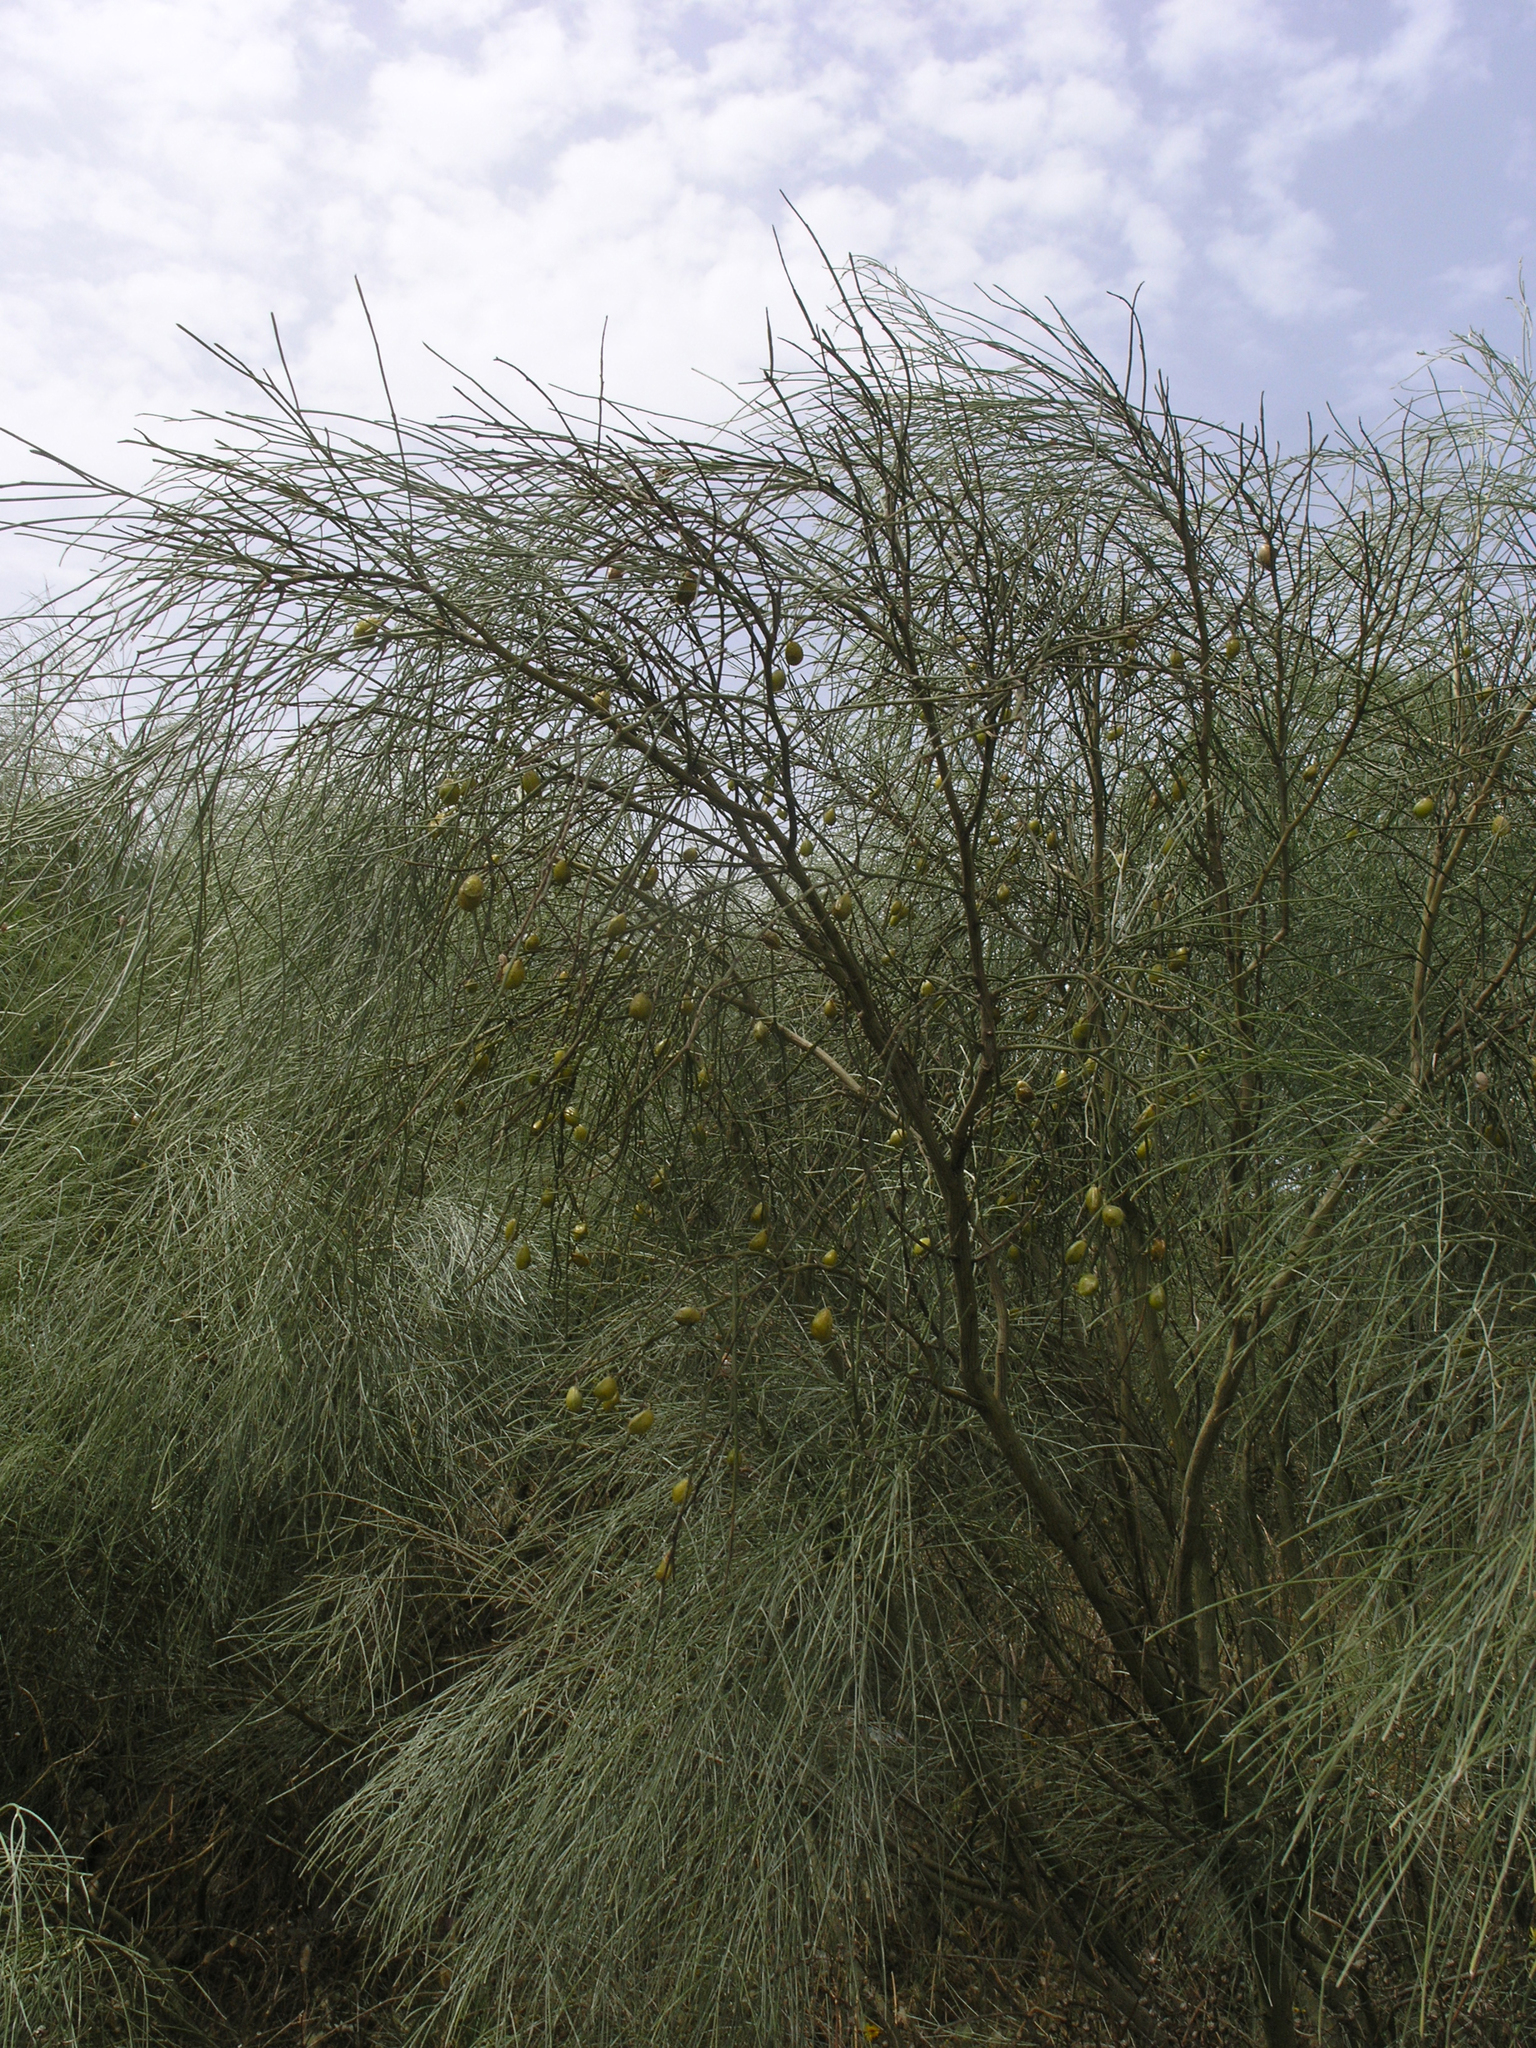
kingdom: Plantae
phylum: Tracheophyta
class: Magnoliopsida
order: Fabales
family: Fabaceae
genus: Retama
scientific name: Retama monosperma
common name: Bridal broom
